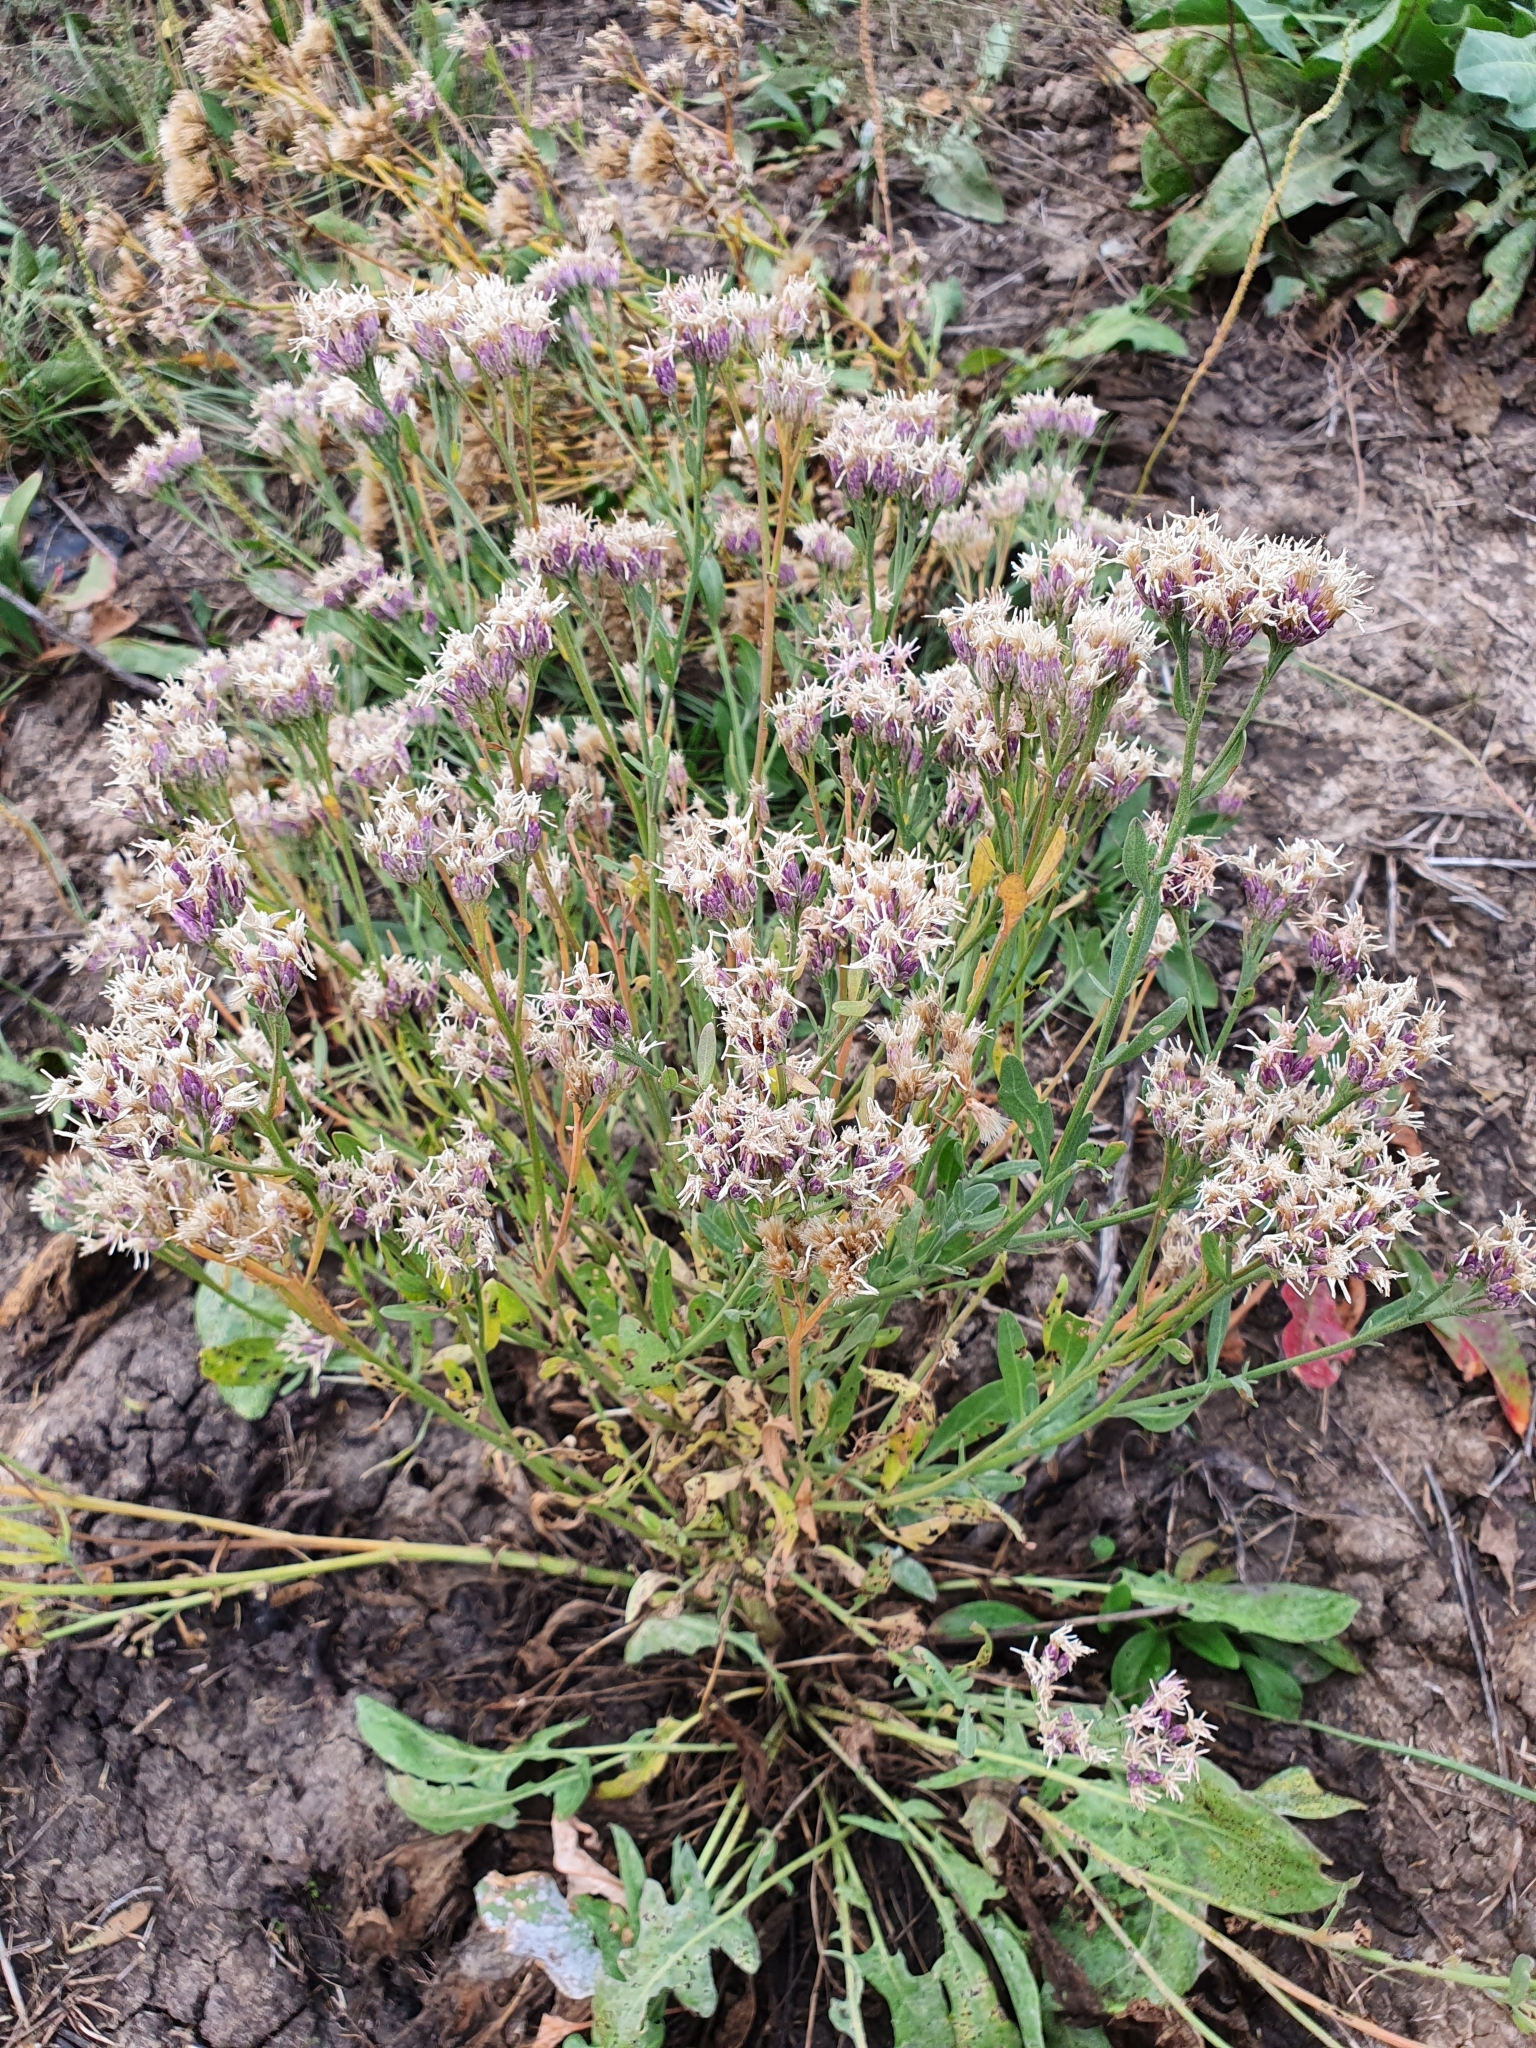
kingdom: Plantae
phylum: Tracheophyta
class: Magnoliopsida
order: Asterales
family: Asteraceae
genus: Saussurea
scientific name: Saussurea salsa
